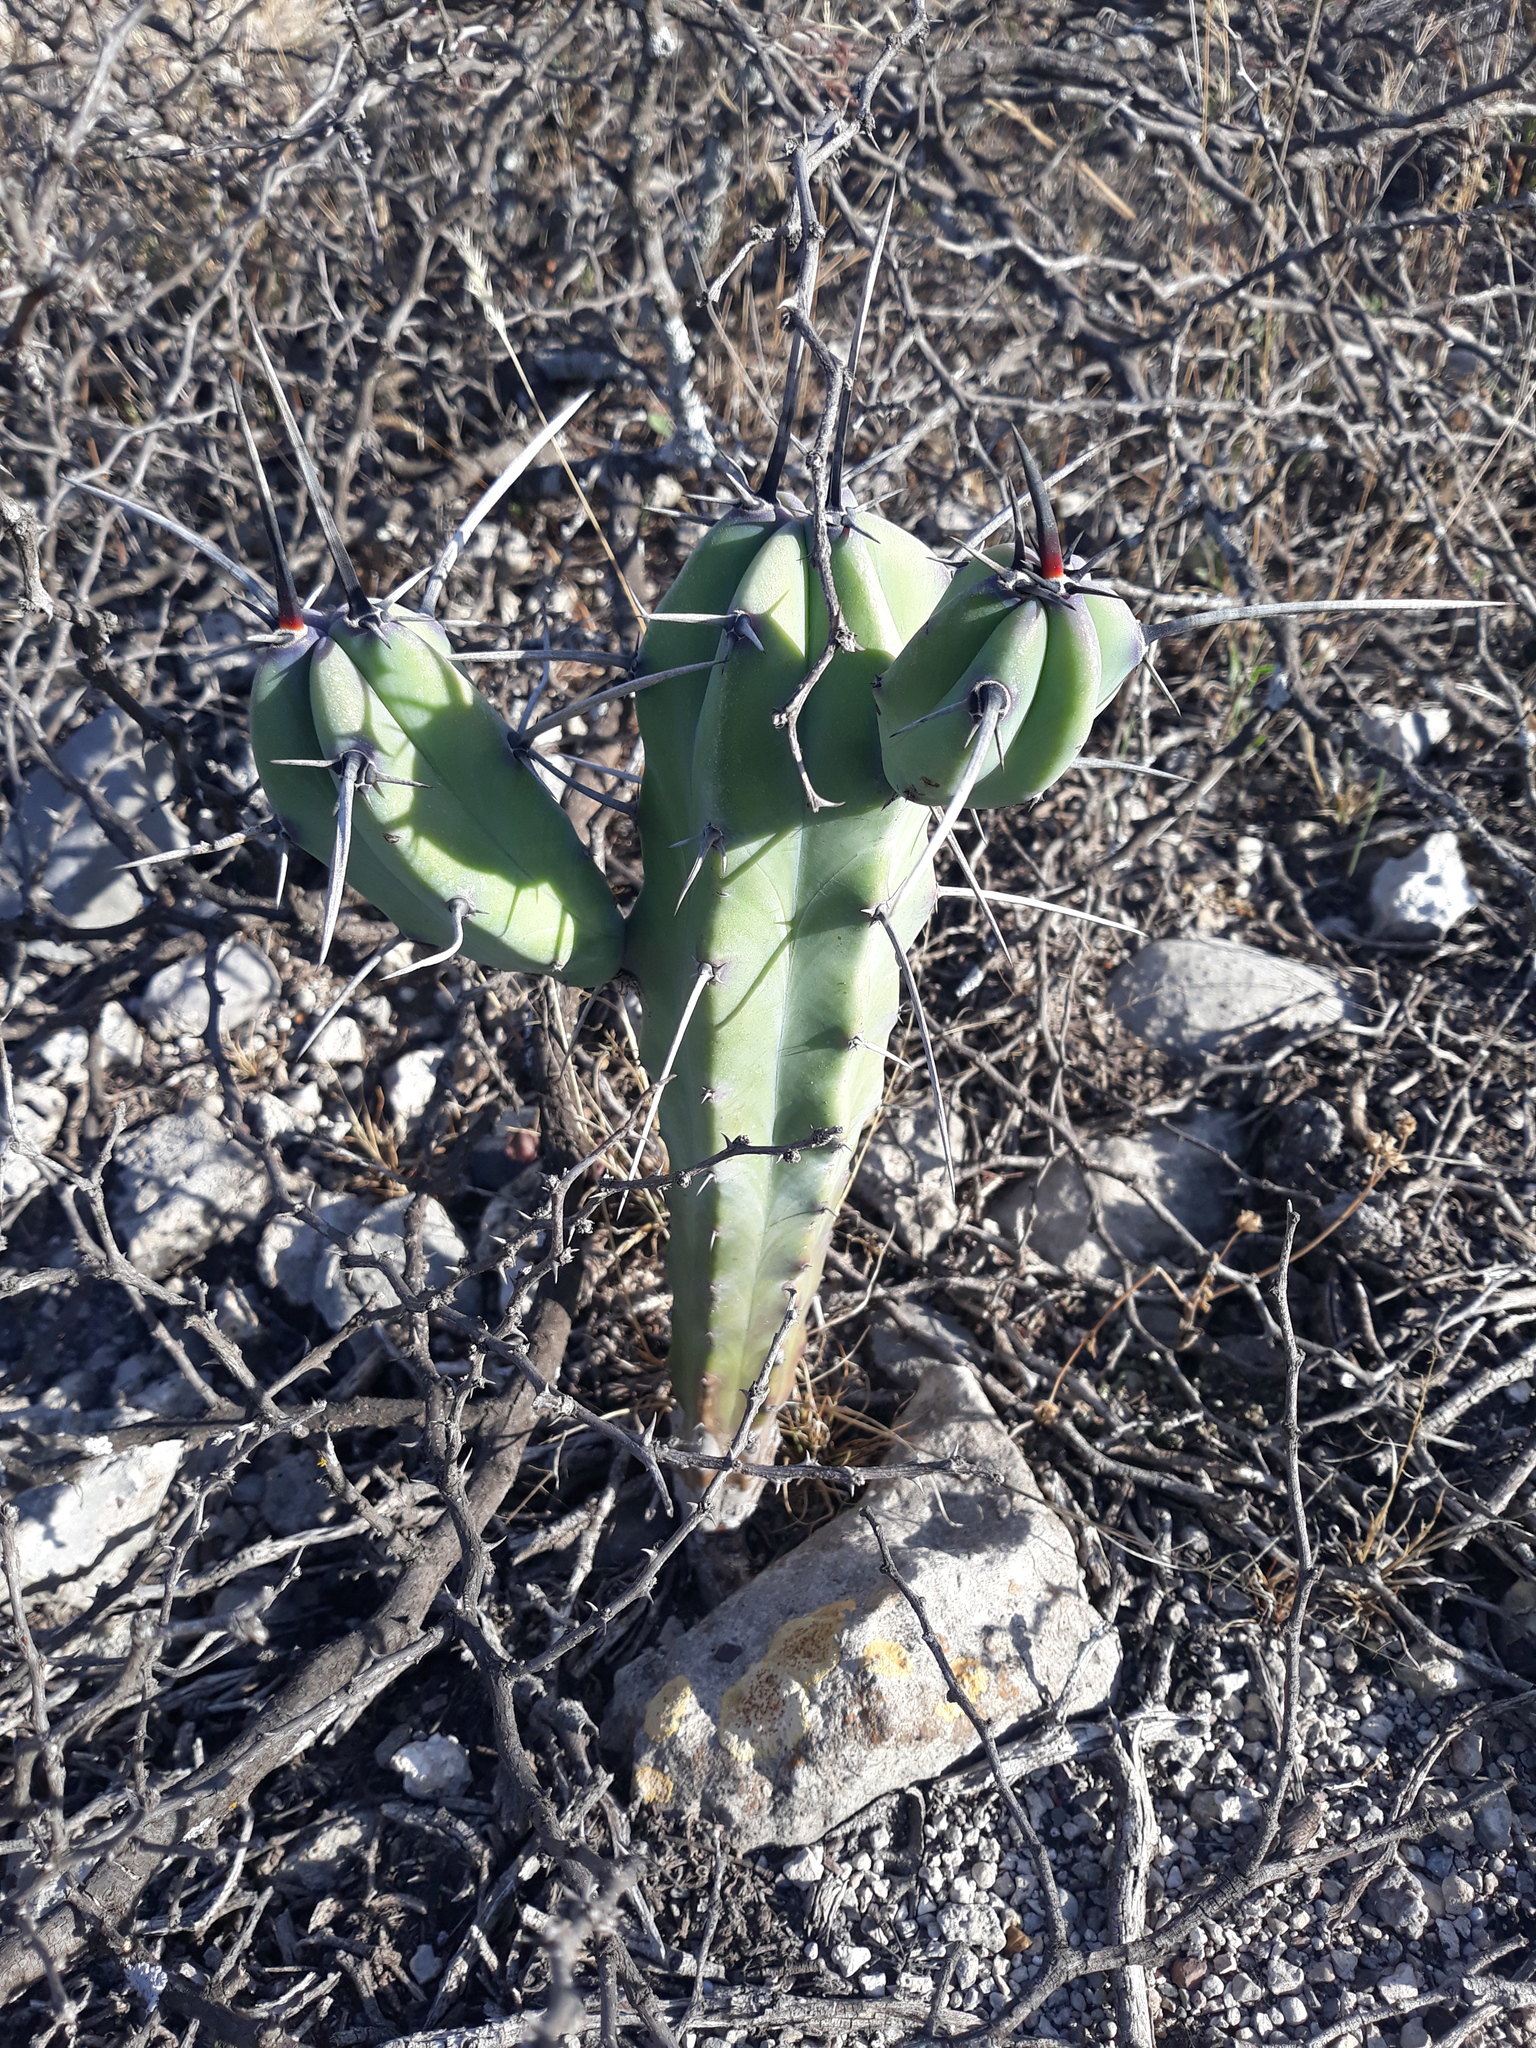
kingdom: Plantae
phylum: Tracheophyta
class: Magnoliopsida
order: Caryophyllales
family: Cactaceae
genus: Myrtillocactus
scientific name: Myrtillocactus geometrizans
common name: Bilberry cactus
